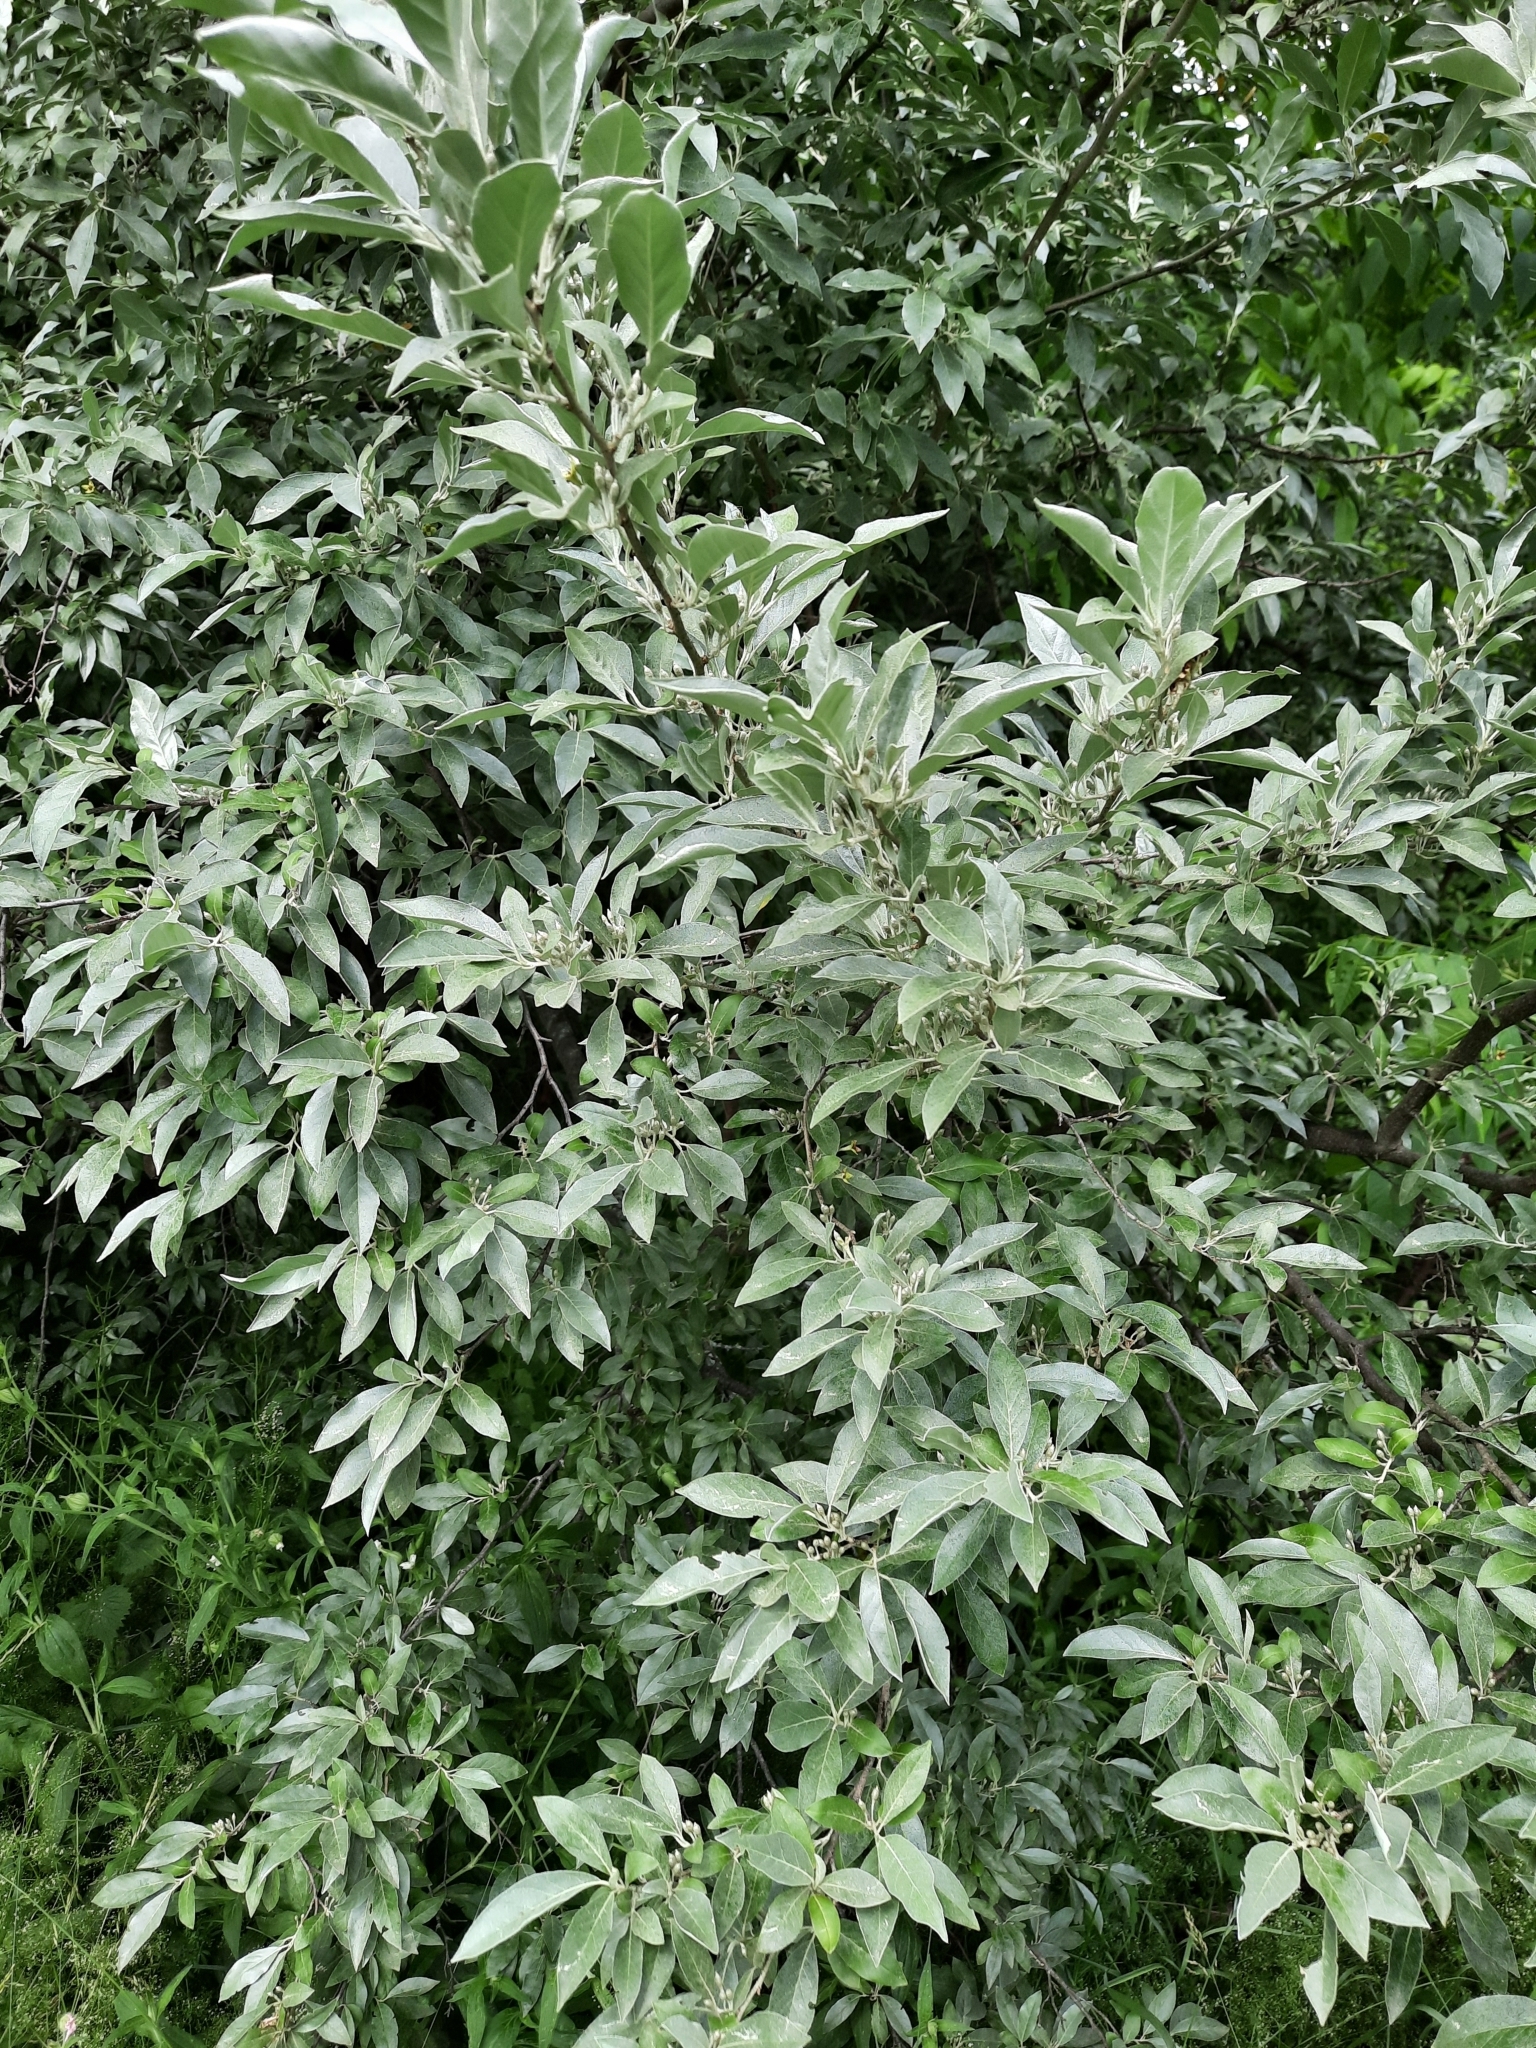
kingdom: Plantae
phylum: Tracheophyta
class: Magnoliopsida
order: Rosales
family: Elaeagnaceae
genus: Elaeagnus
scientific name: Elaeagnus umbellata
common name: Autumn olive
